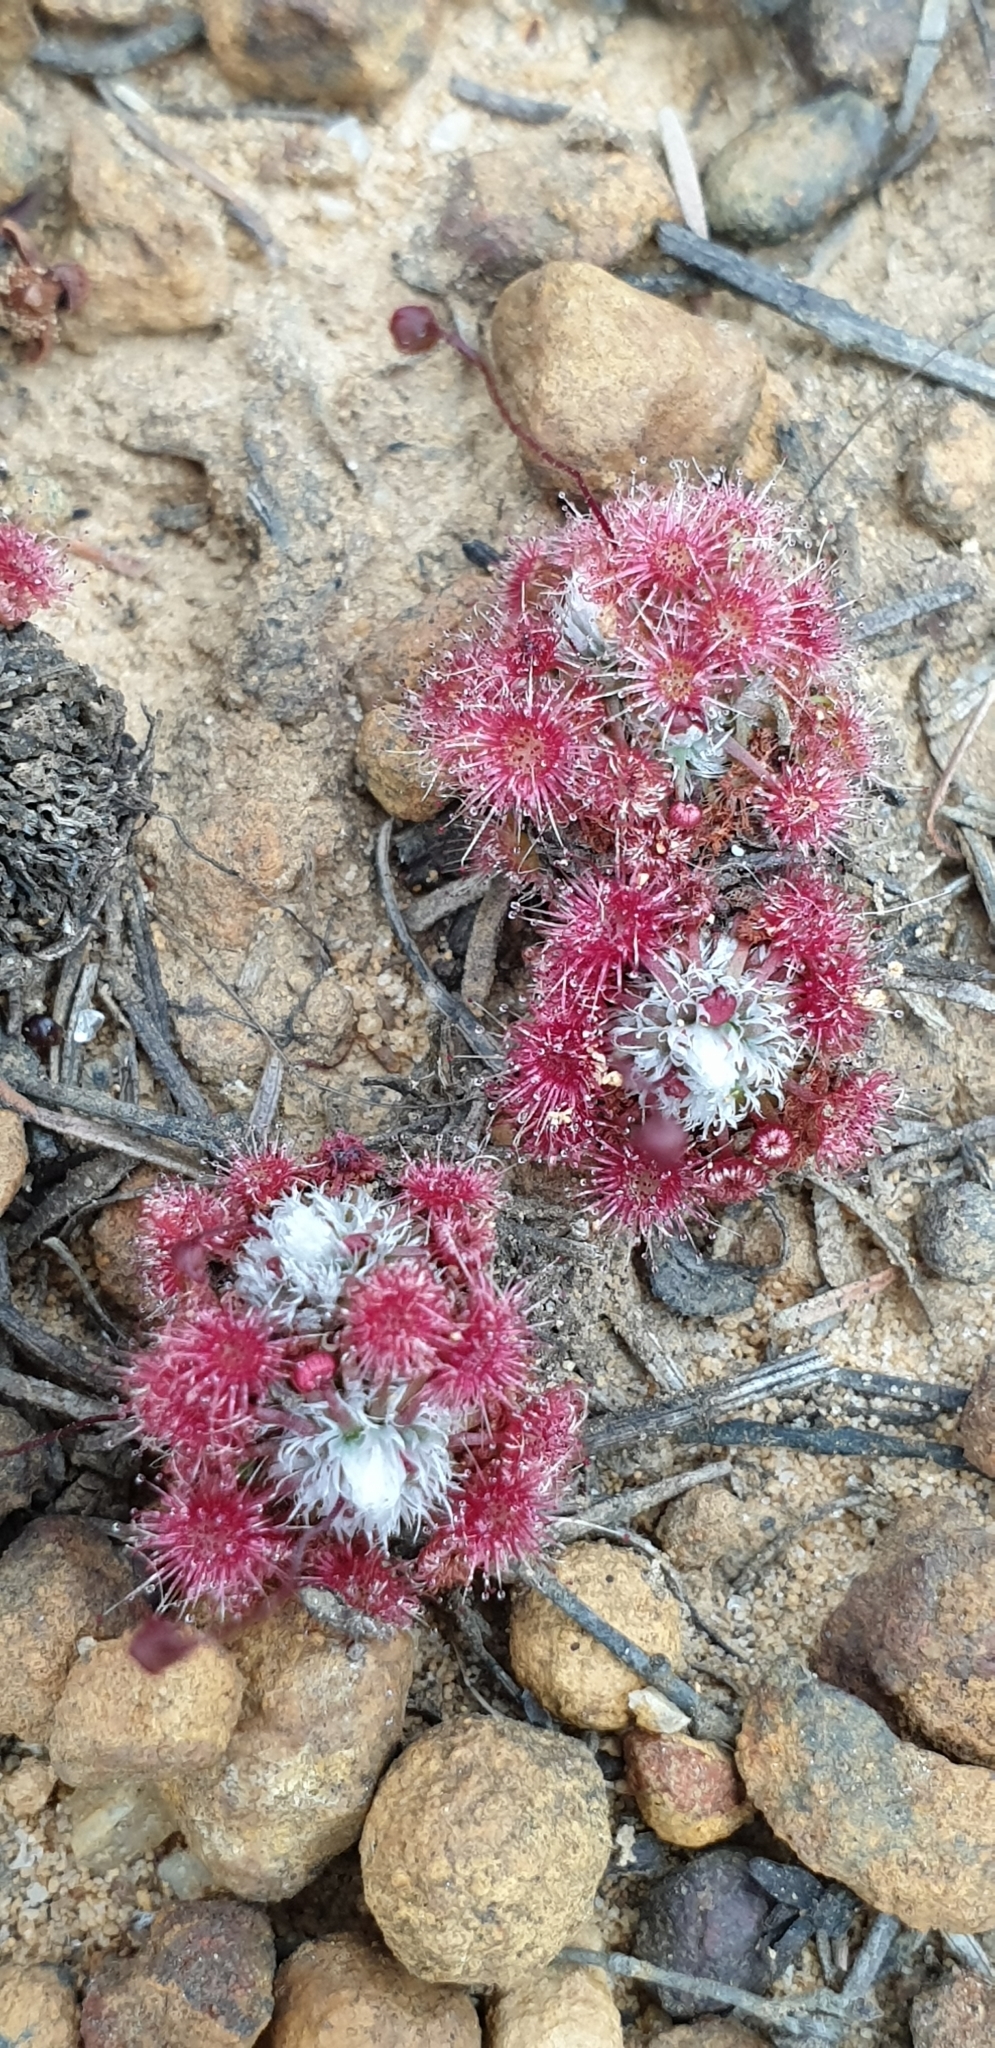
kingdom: Plantae
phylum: Tracheophyta
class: Magnoliopsida
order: Caryophyllales
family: Droseraceae
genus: Drosera
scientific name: Drosera pygmaea
